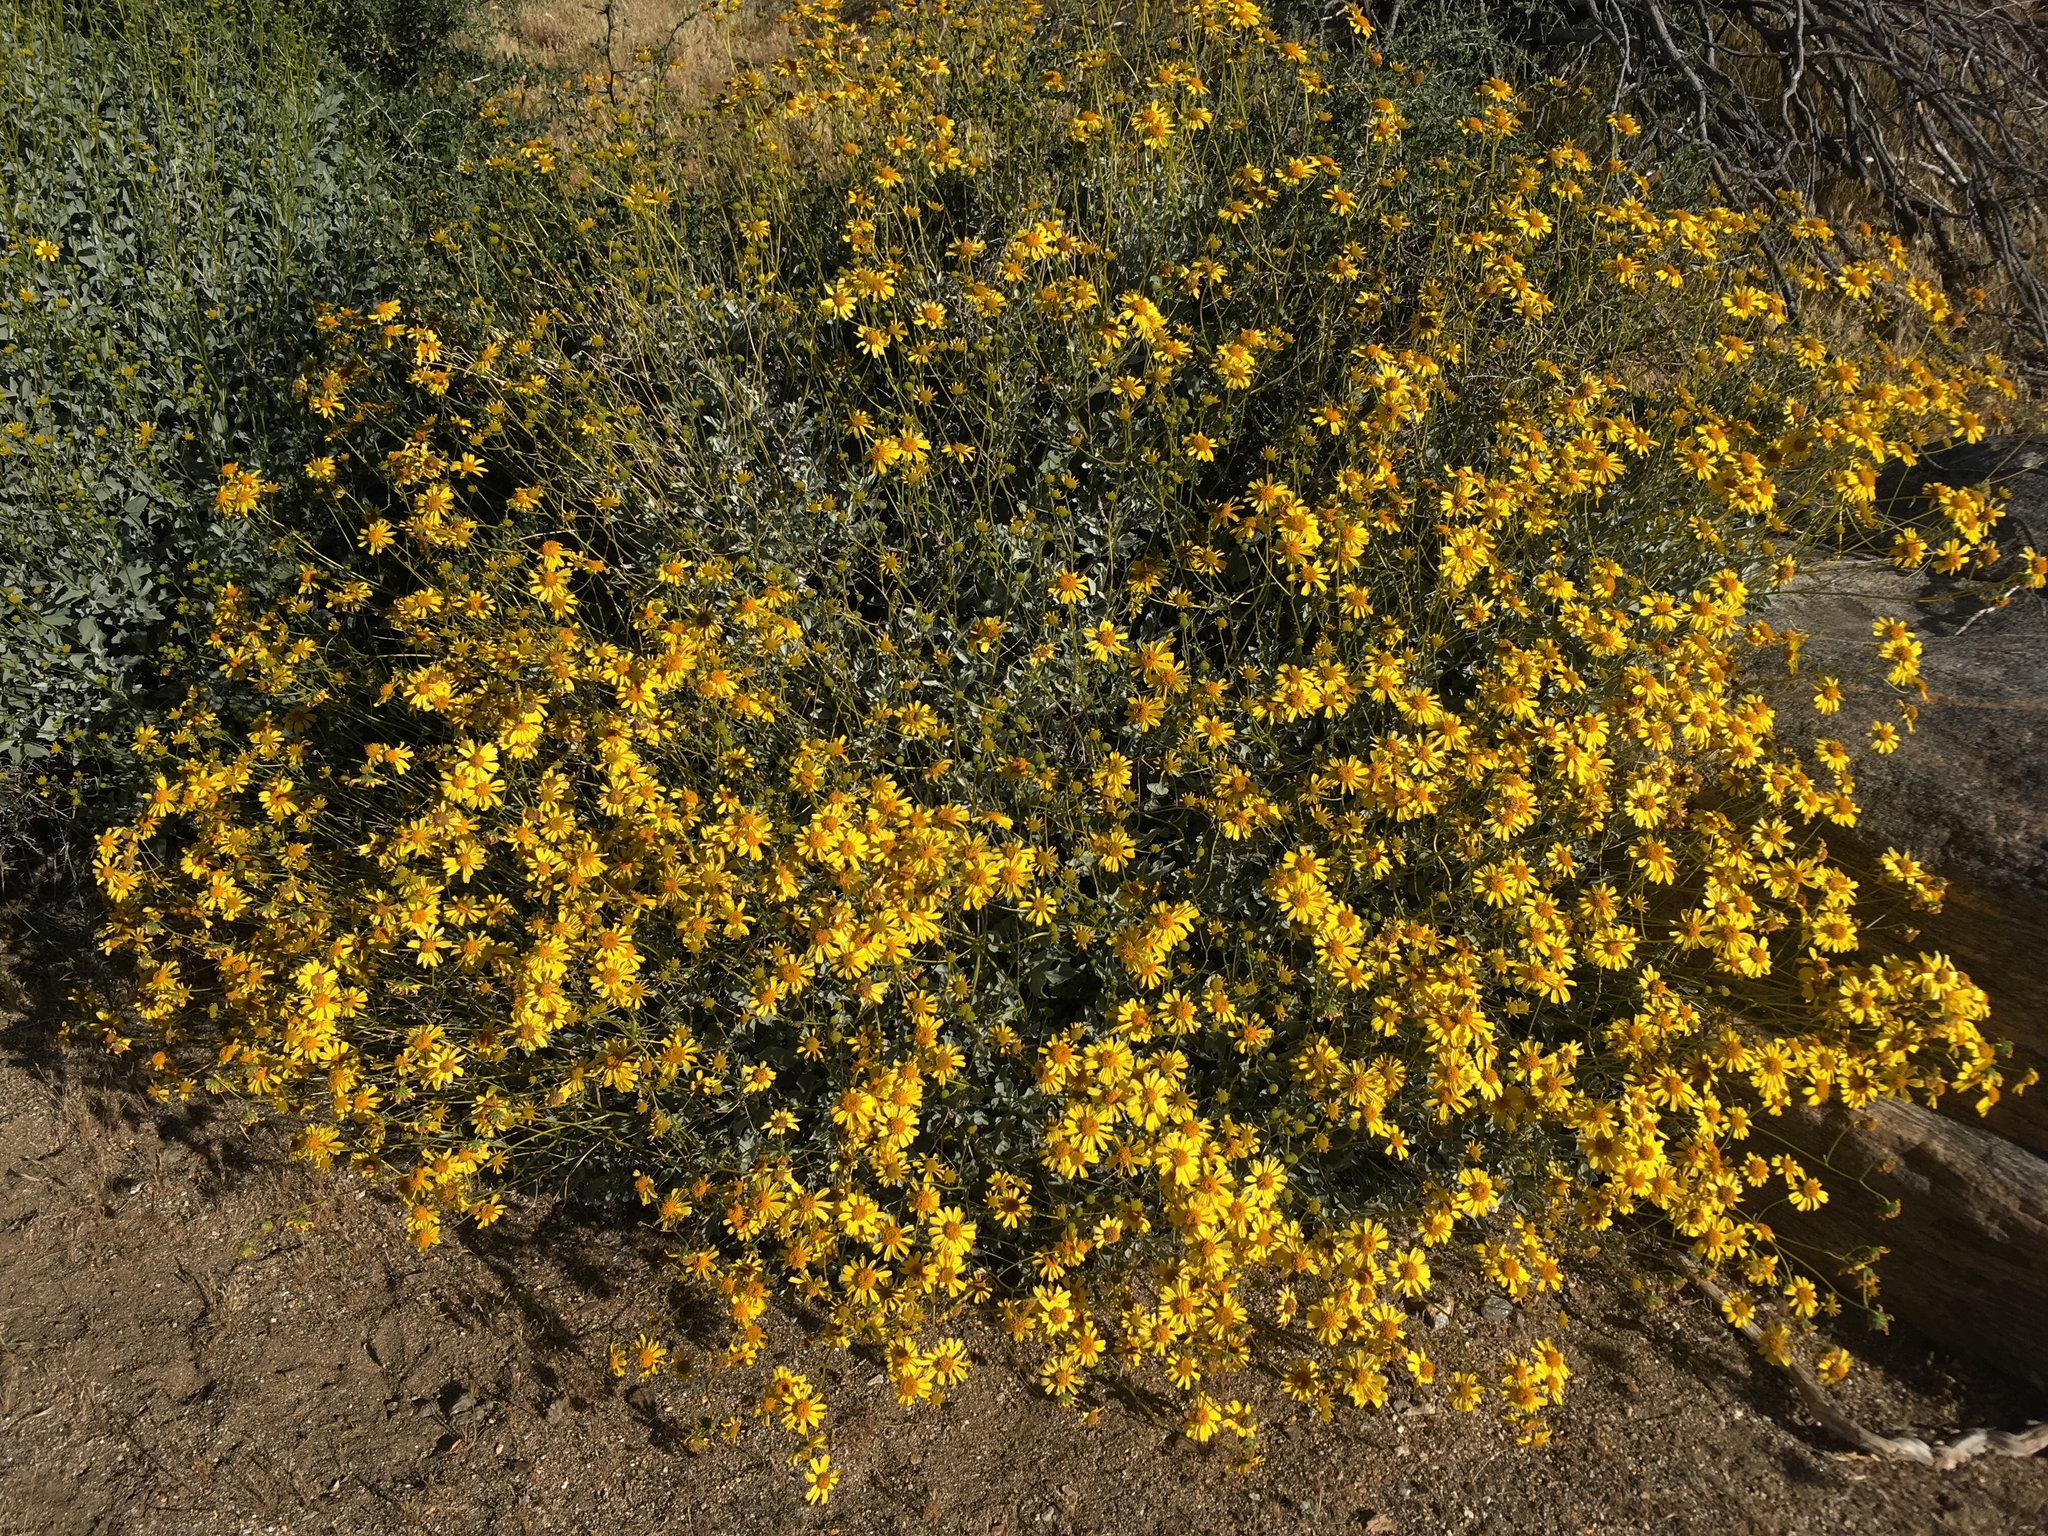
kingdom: Plantae
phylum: Tracheophyta
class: Magnoliopsida
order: Asterales
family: Asteraceae
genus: Encelia
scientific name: Encelia farinosa
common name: Brittlebush
